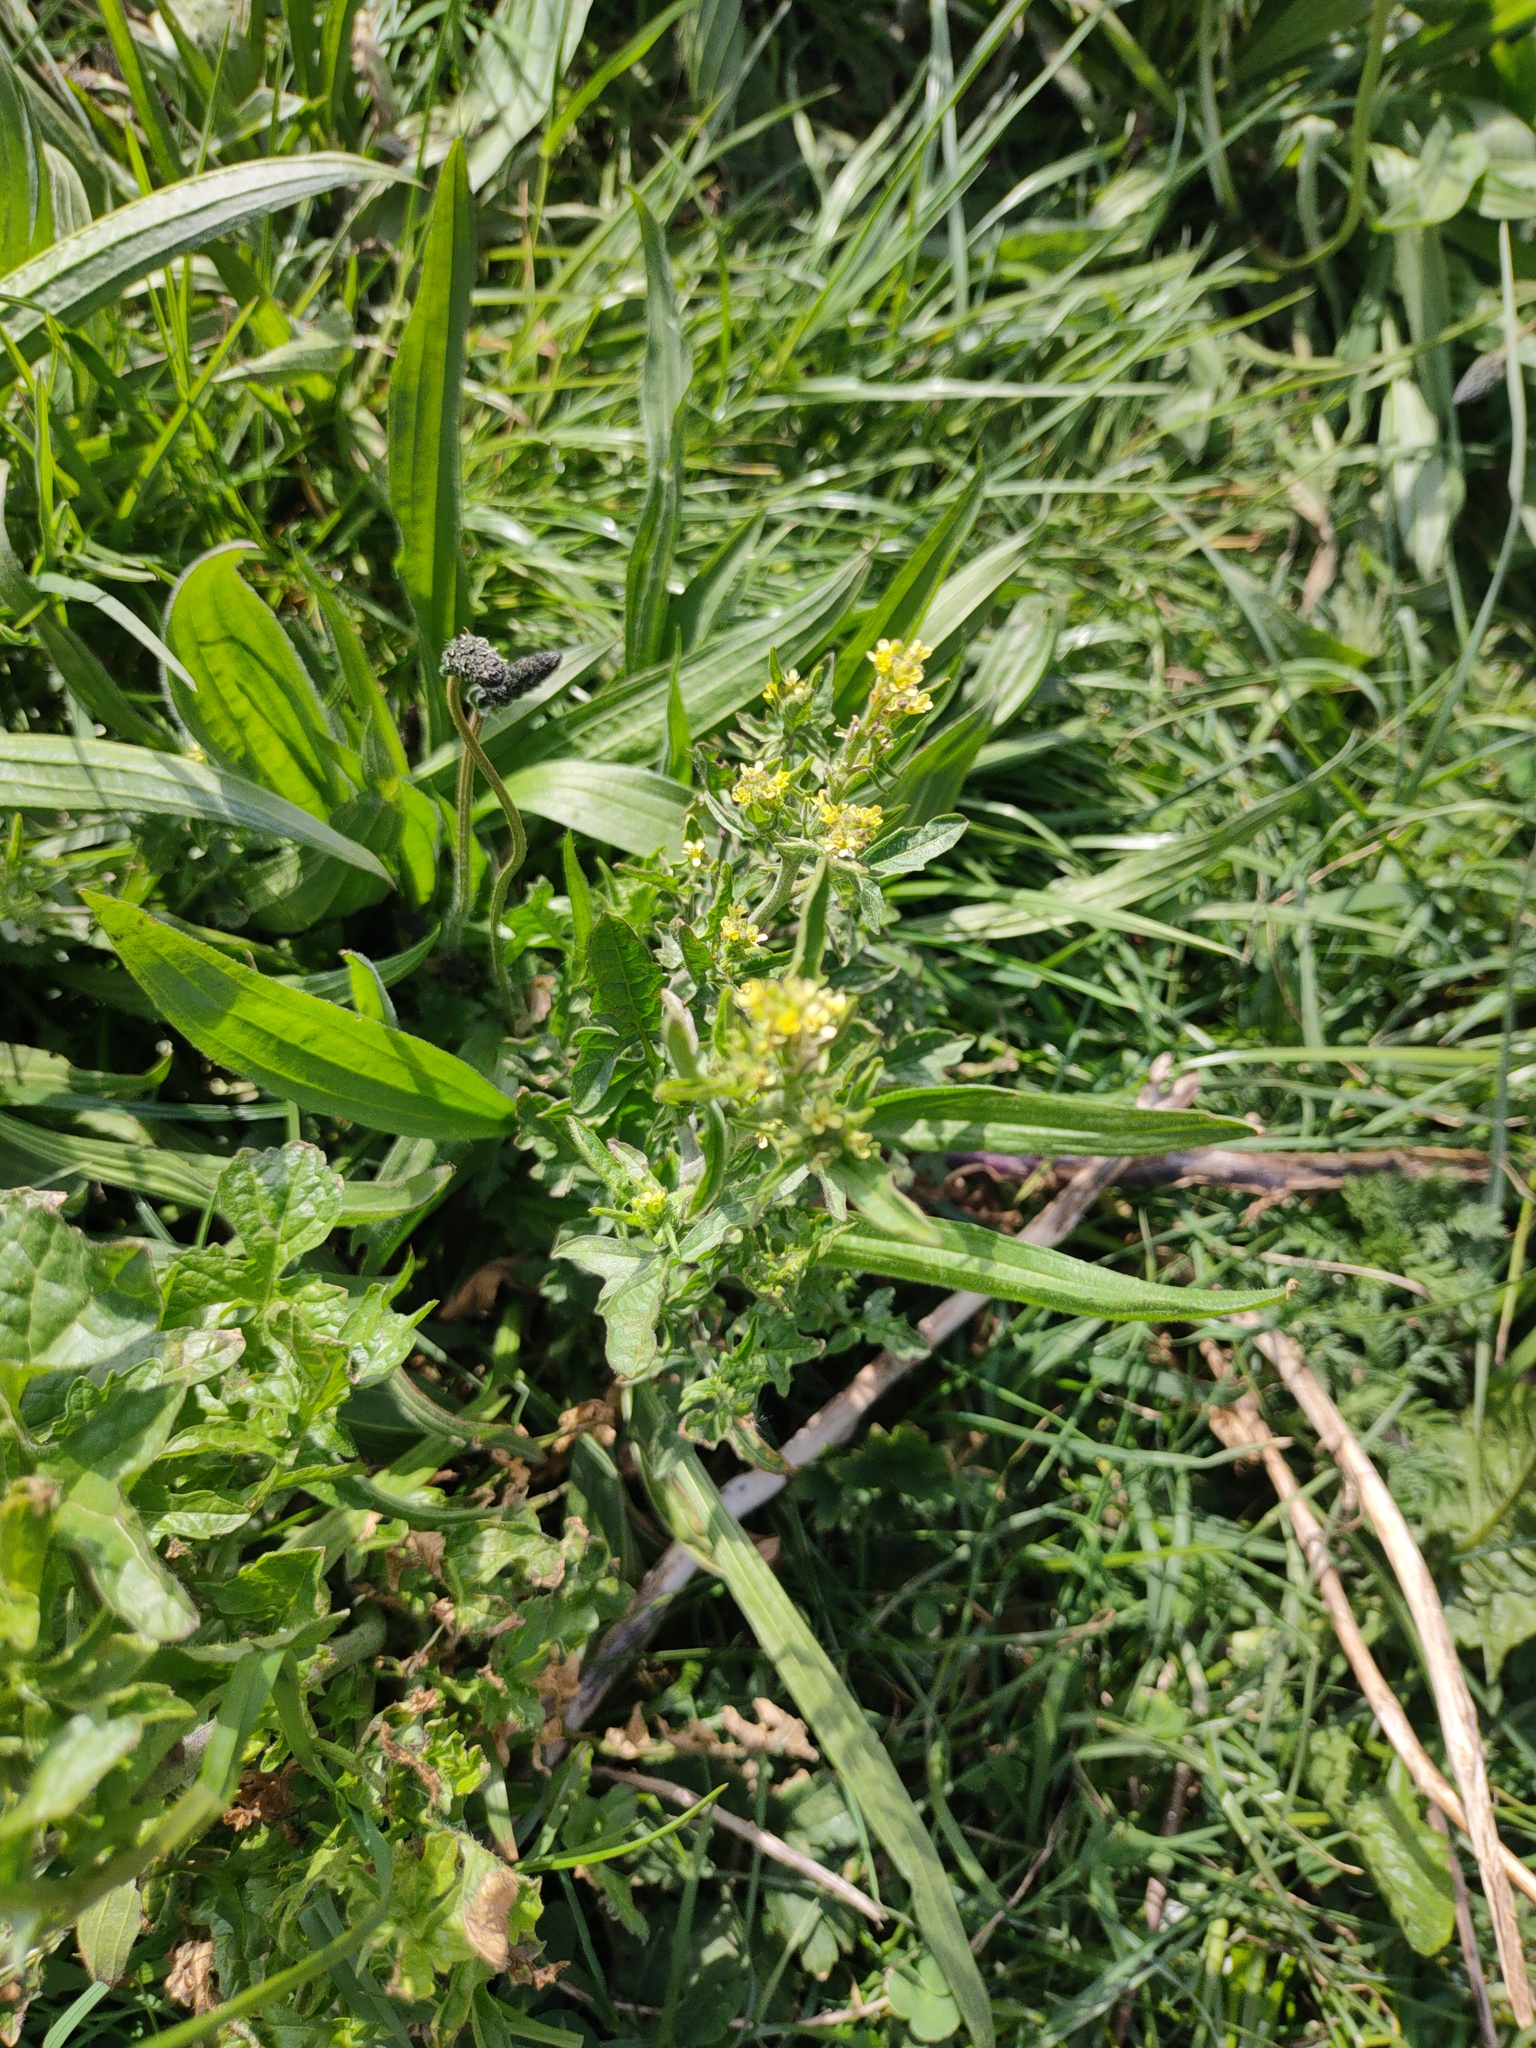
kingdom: Plantae
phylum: Tracheophyta
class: Magnoliopsida
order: Brassicales
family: Brassicaceae
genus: Sisymbrium
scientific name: Sisymbrium officinale
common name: Hedge mustard
